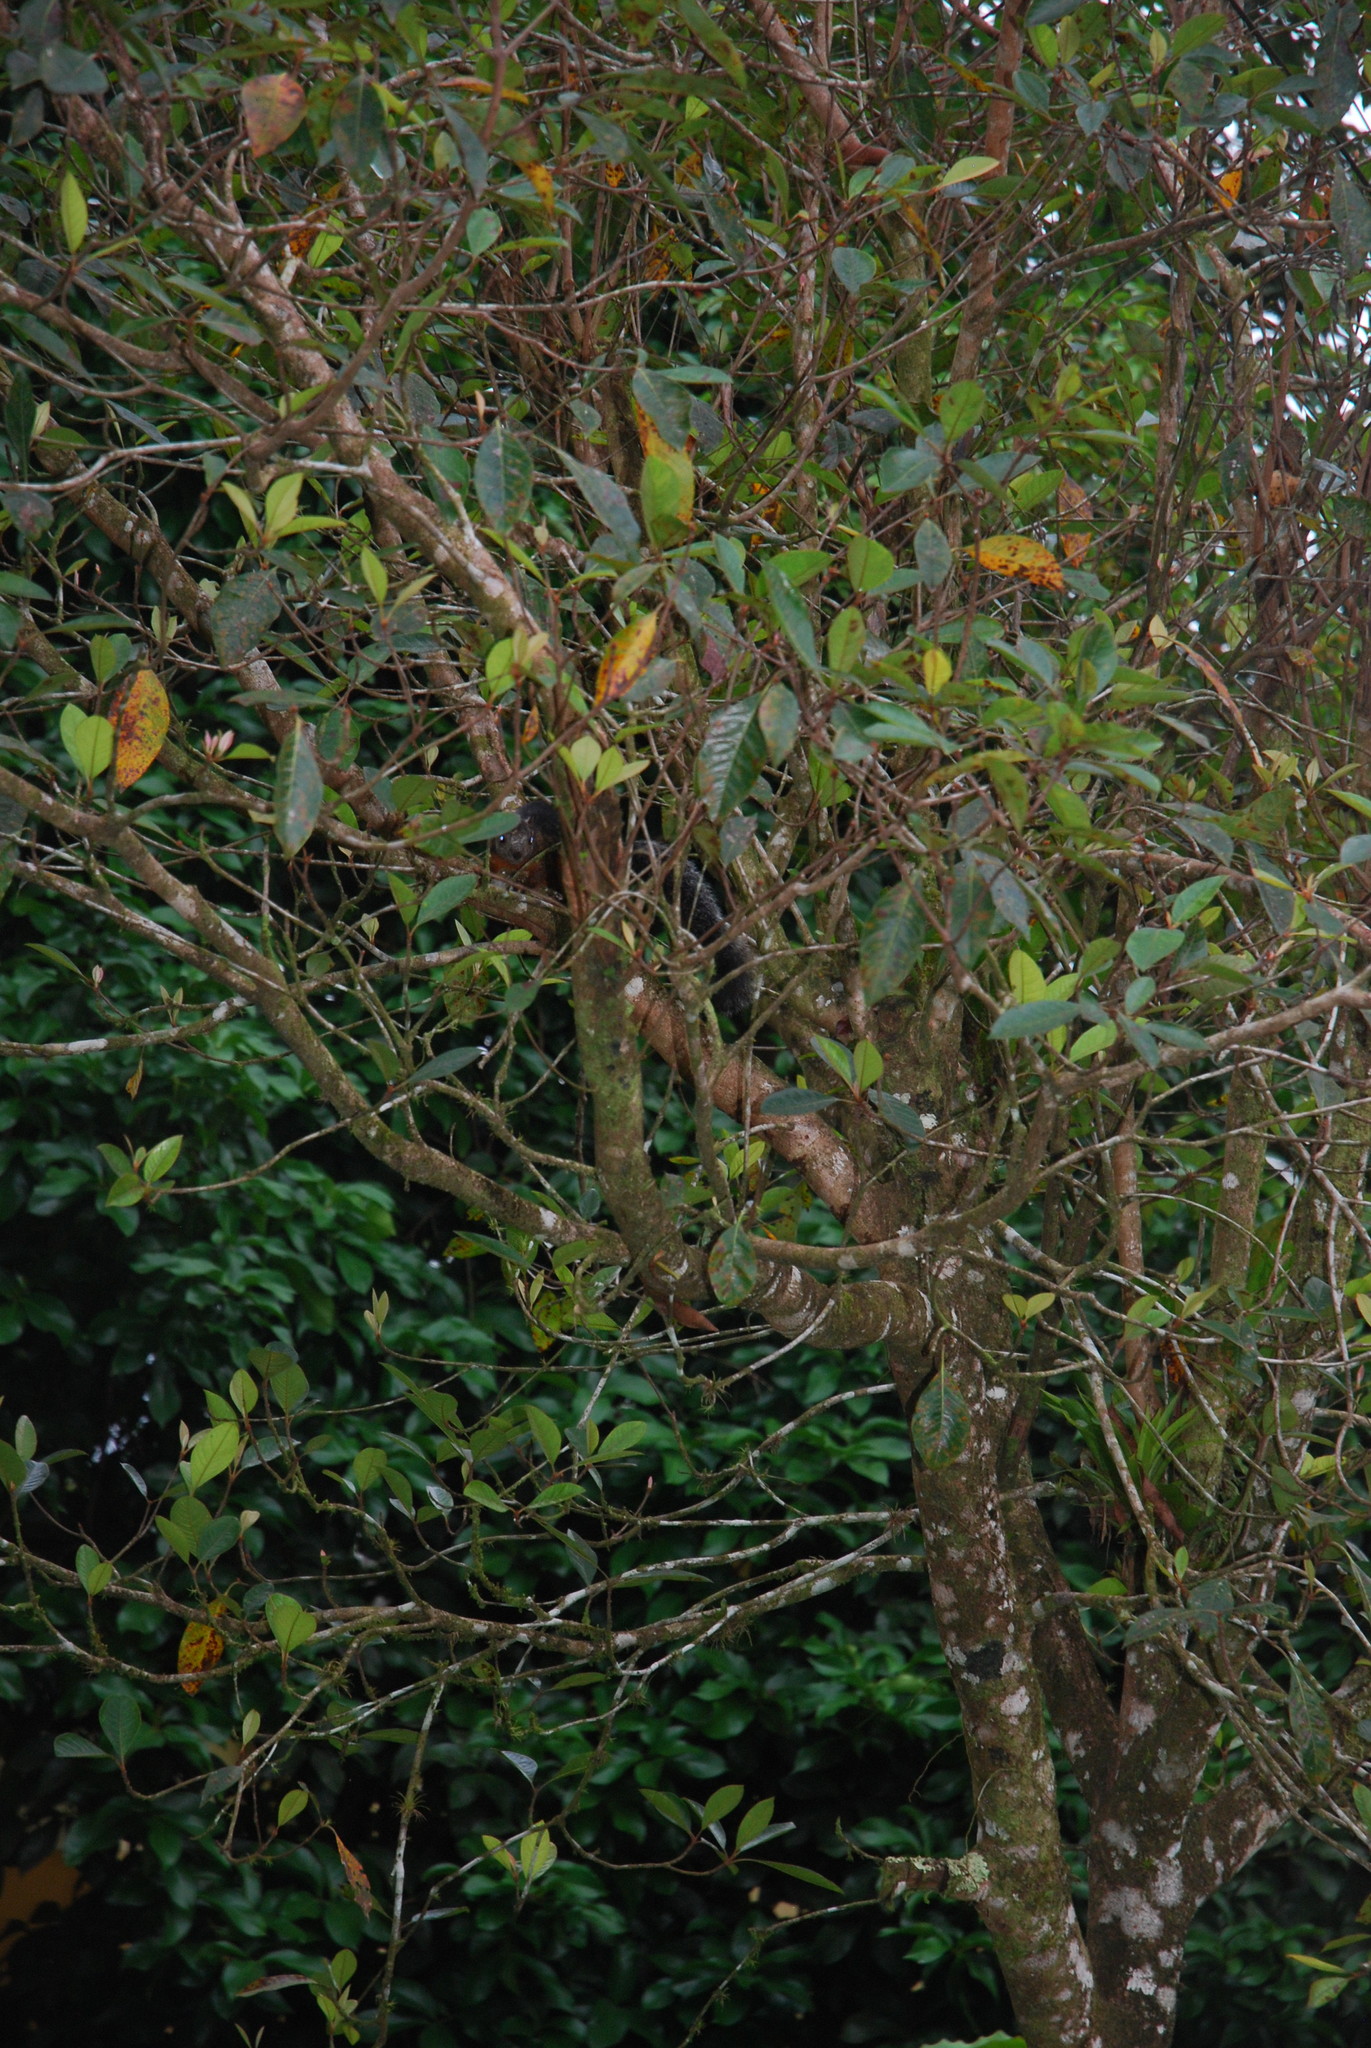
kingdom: Animalia
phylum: Chordata
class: Mammalia
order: Rodentia
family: Sciuridae
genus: Sciurus
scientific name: Sciurus variegatoides
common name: Variegated squirrel
